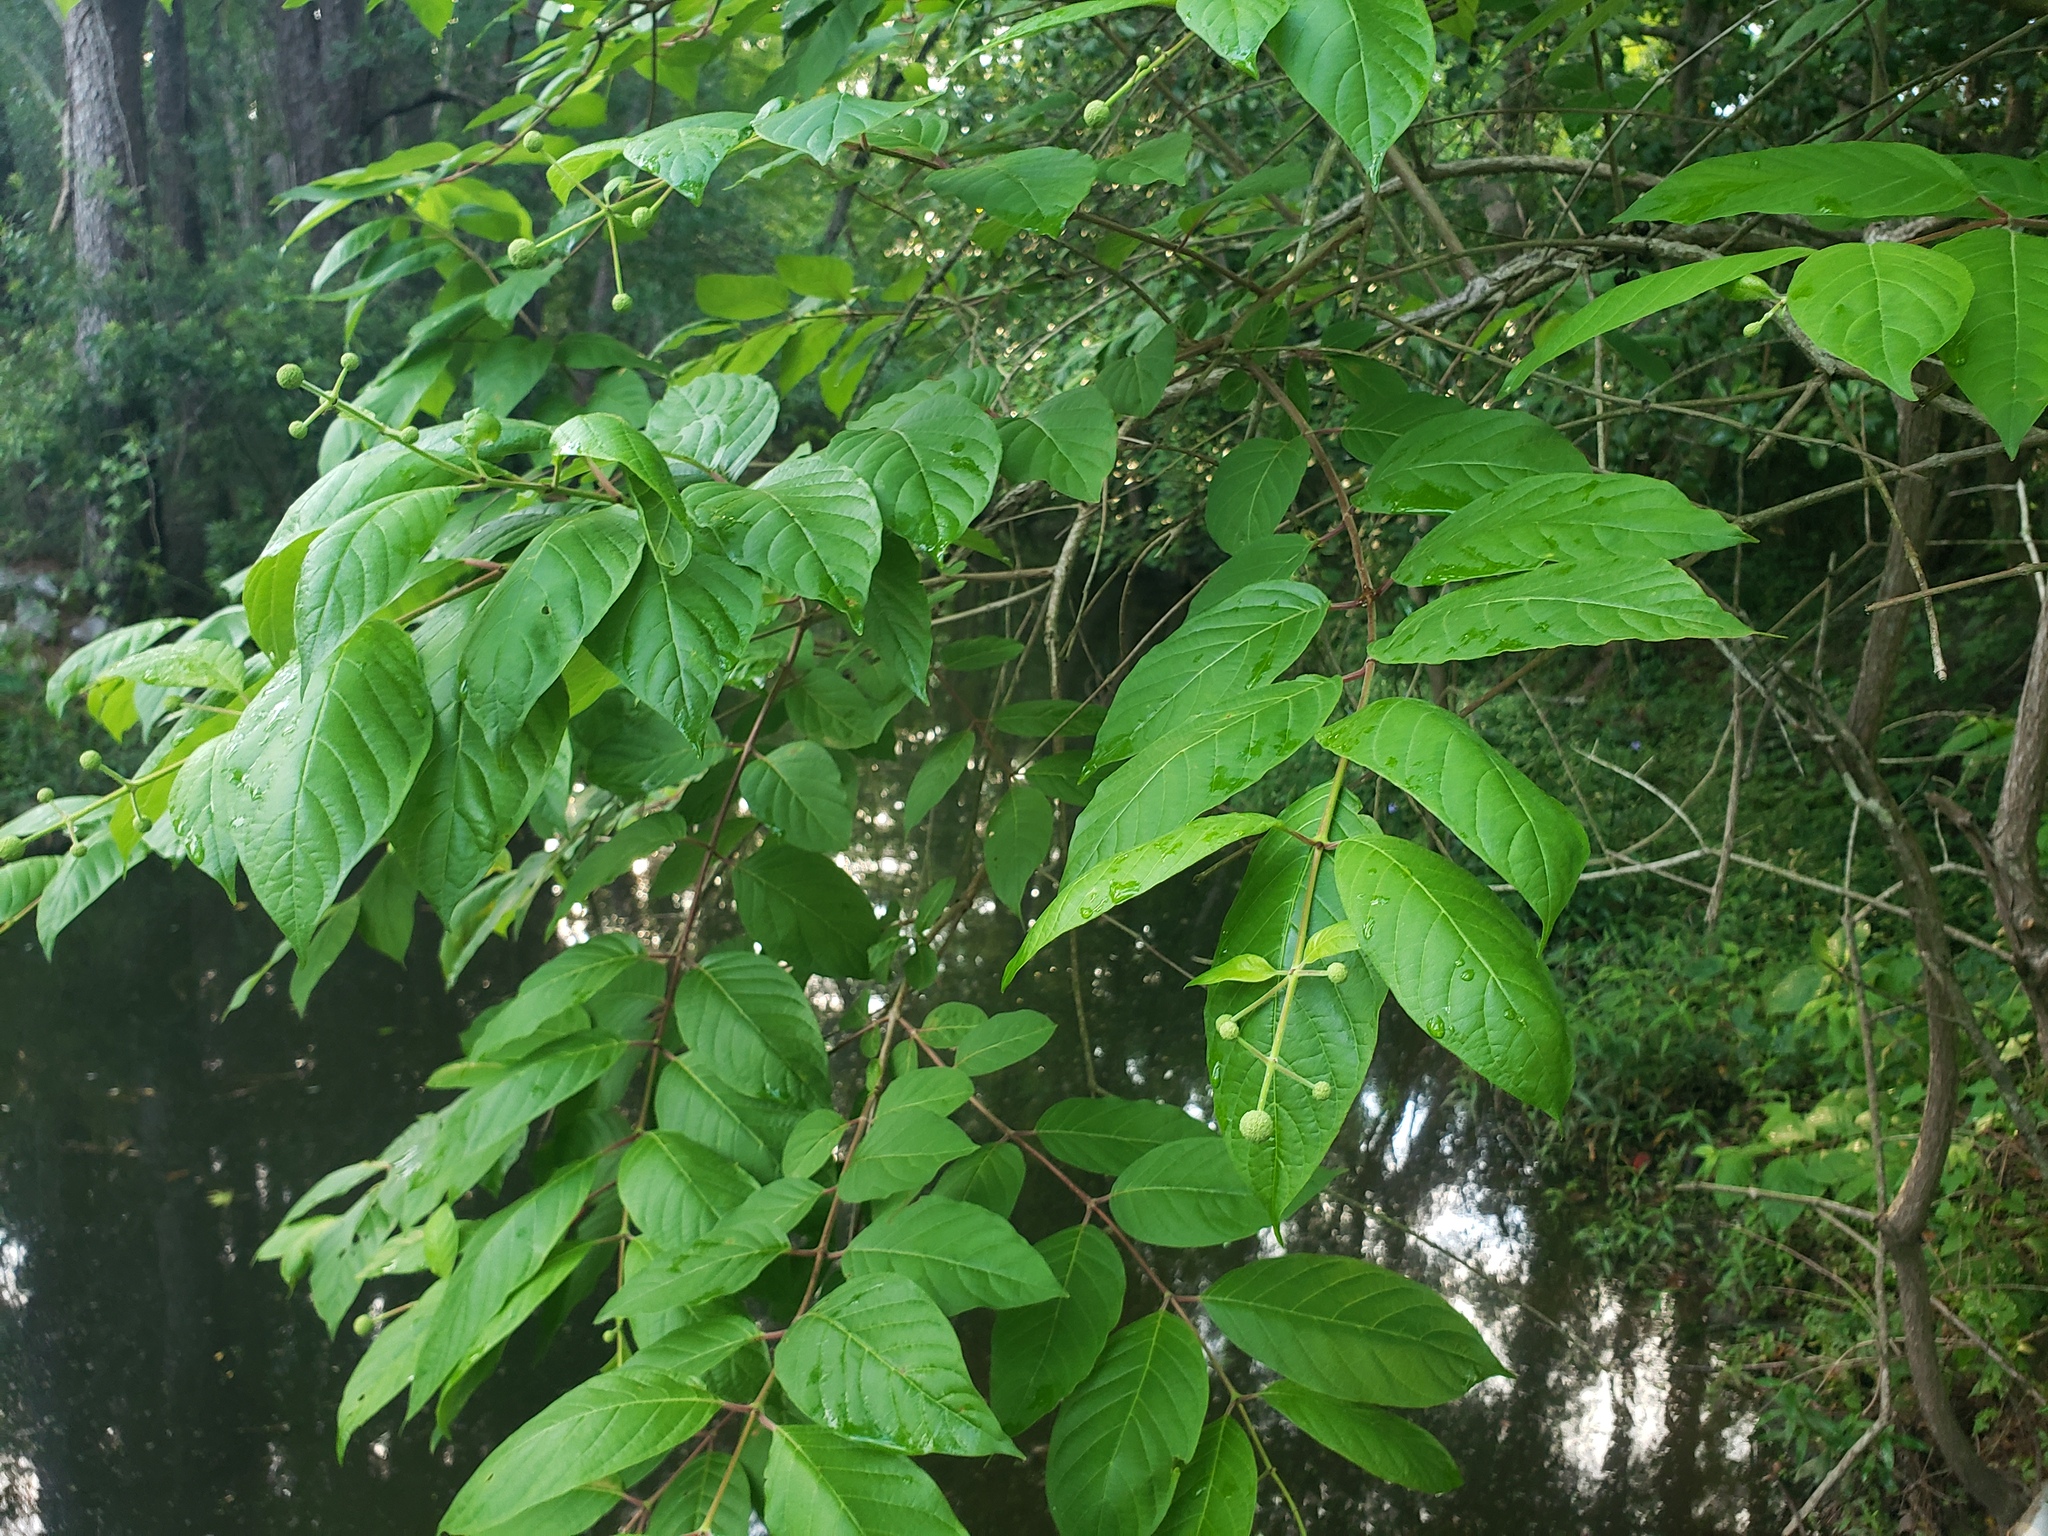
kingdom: Plantae
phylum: Tracheophyta
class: Magnoliopsida
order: Gentianales
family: Rubiaceae
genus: Cephalanthus
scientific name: Cephalanthus occidentalis
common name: Button-willow
